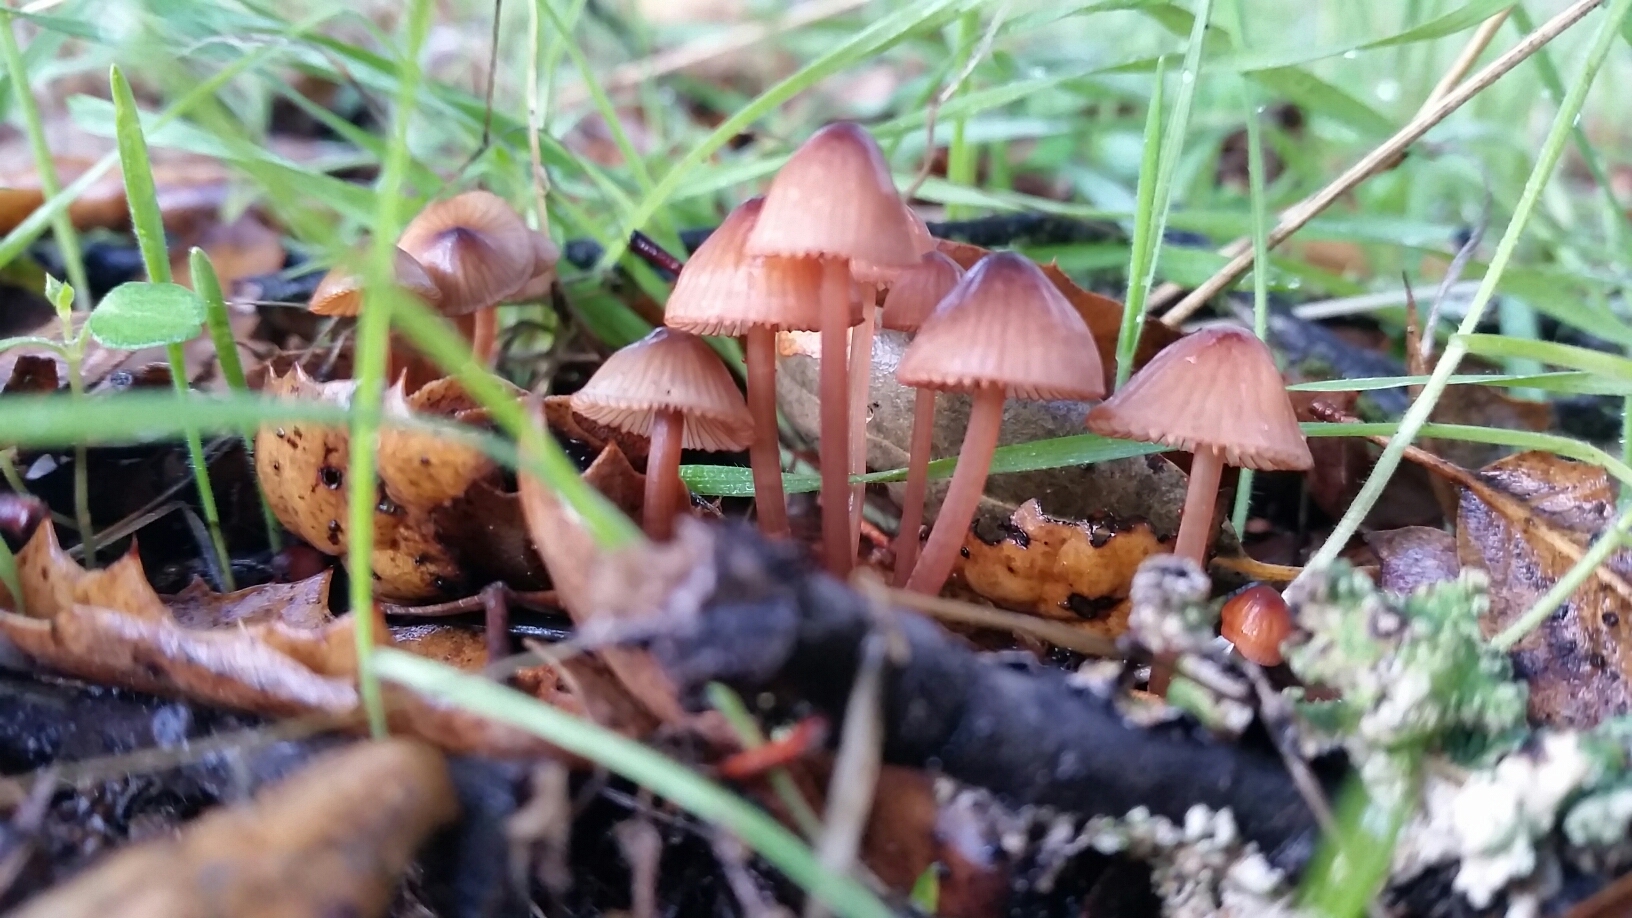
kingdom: Fungi
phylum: Basidiomycota
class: Agaricomycetes
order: Agaricales
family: Mycenaceae
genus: Mycena
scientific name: Mycena purpureofusca
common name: Purple edge bonnet
